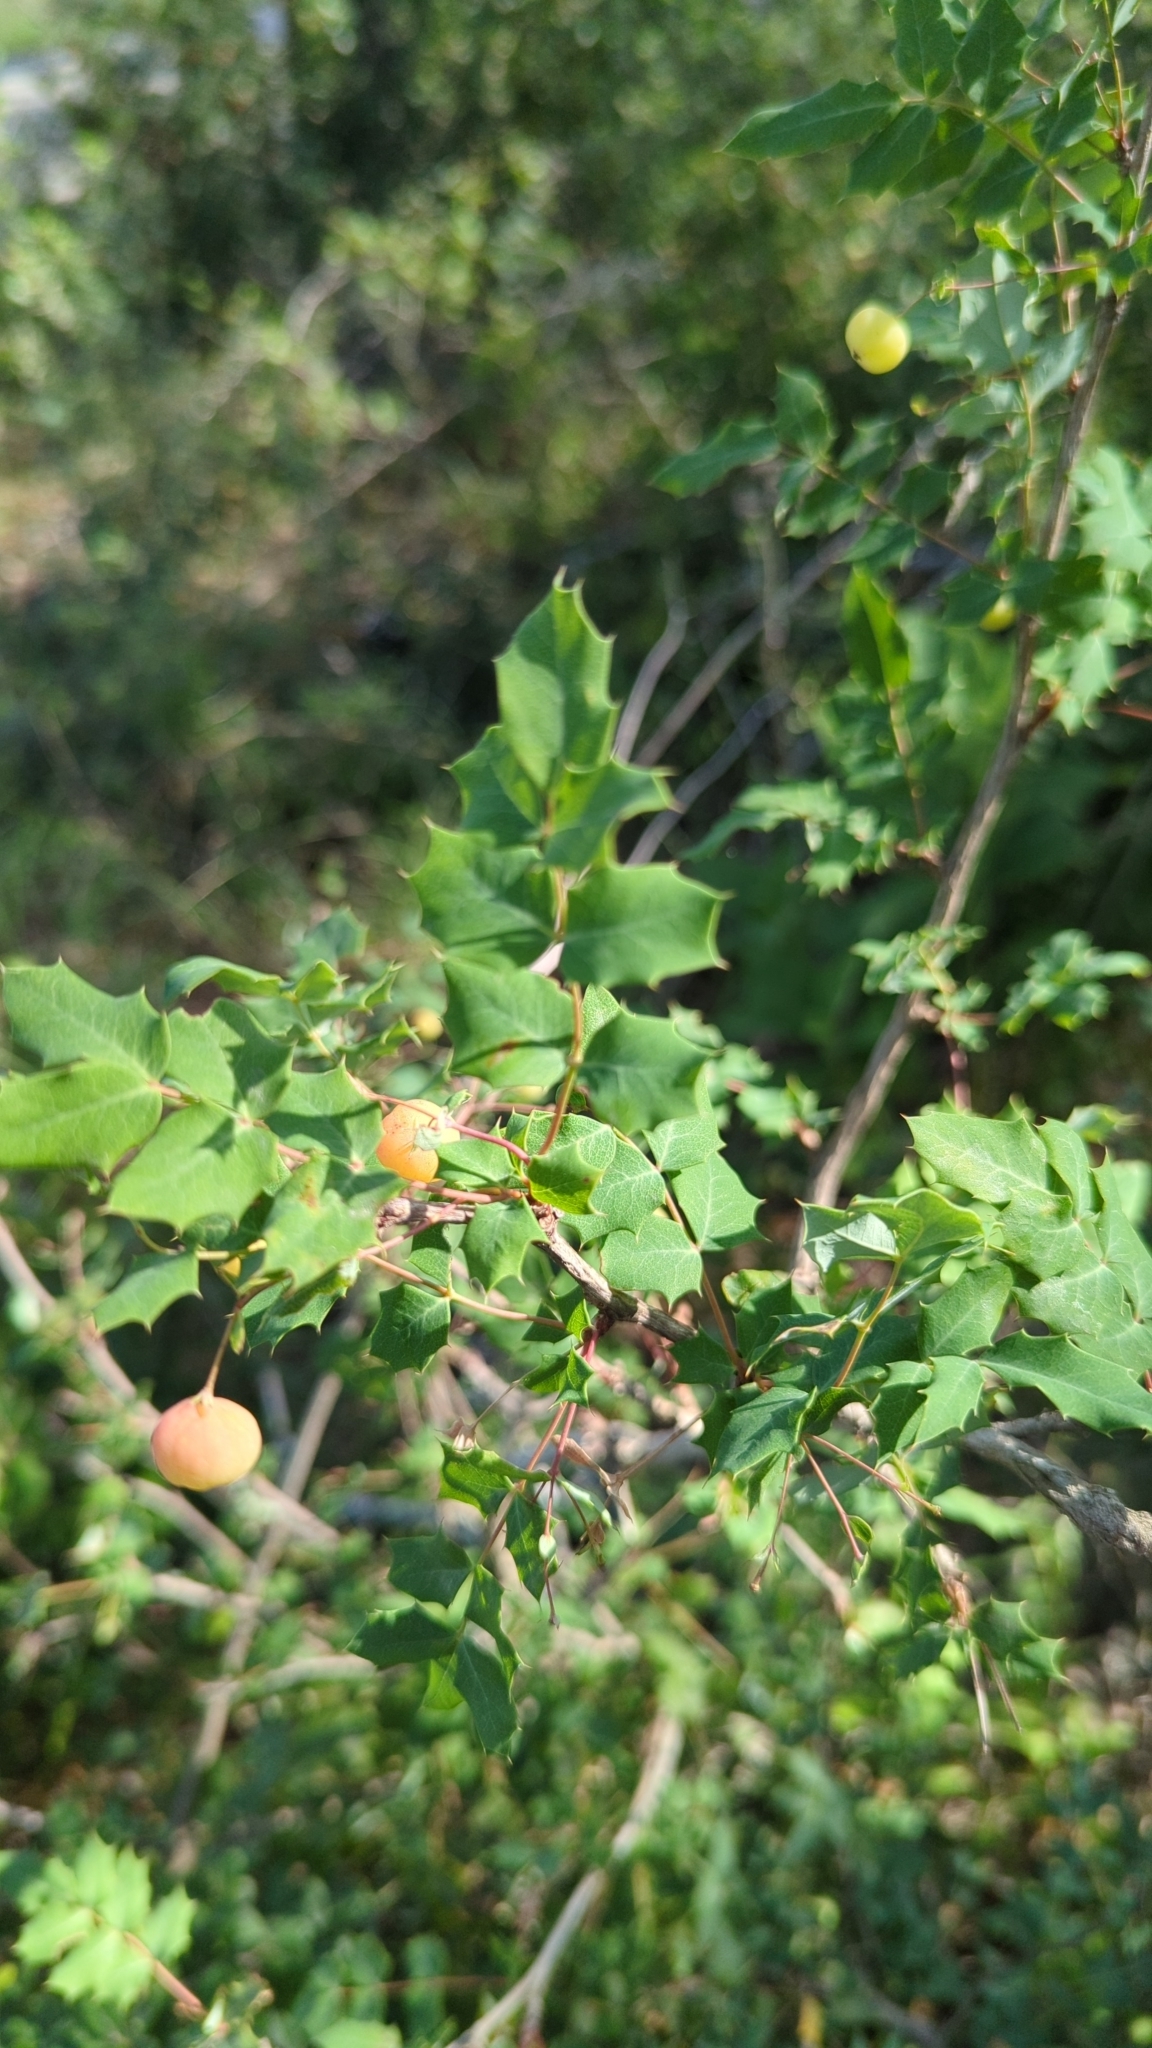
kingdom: Plantae
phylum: Tracheophyta
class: Magnoliopsida
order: Ranunculales
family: Berberidaceae
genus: Berberis
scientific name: Berberis swaseyi
